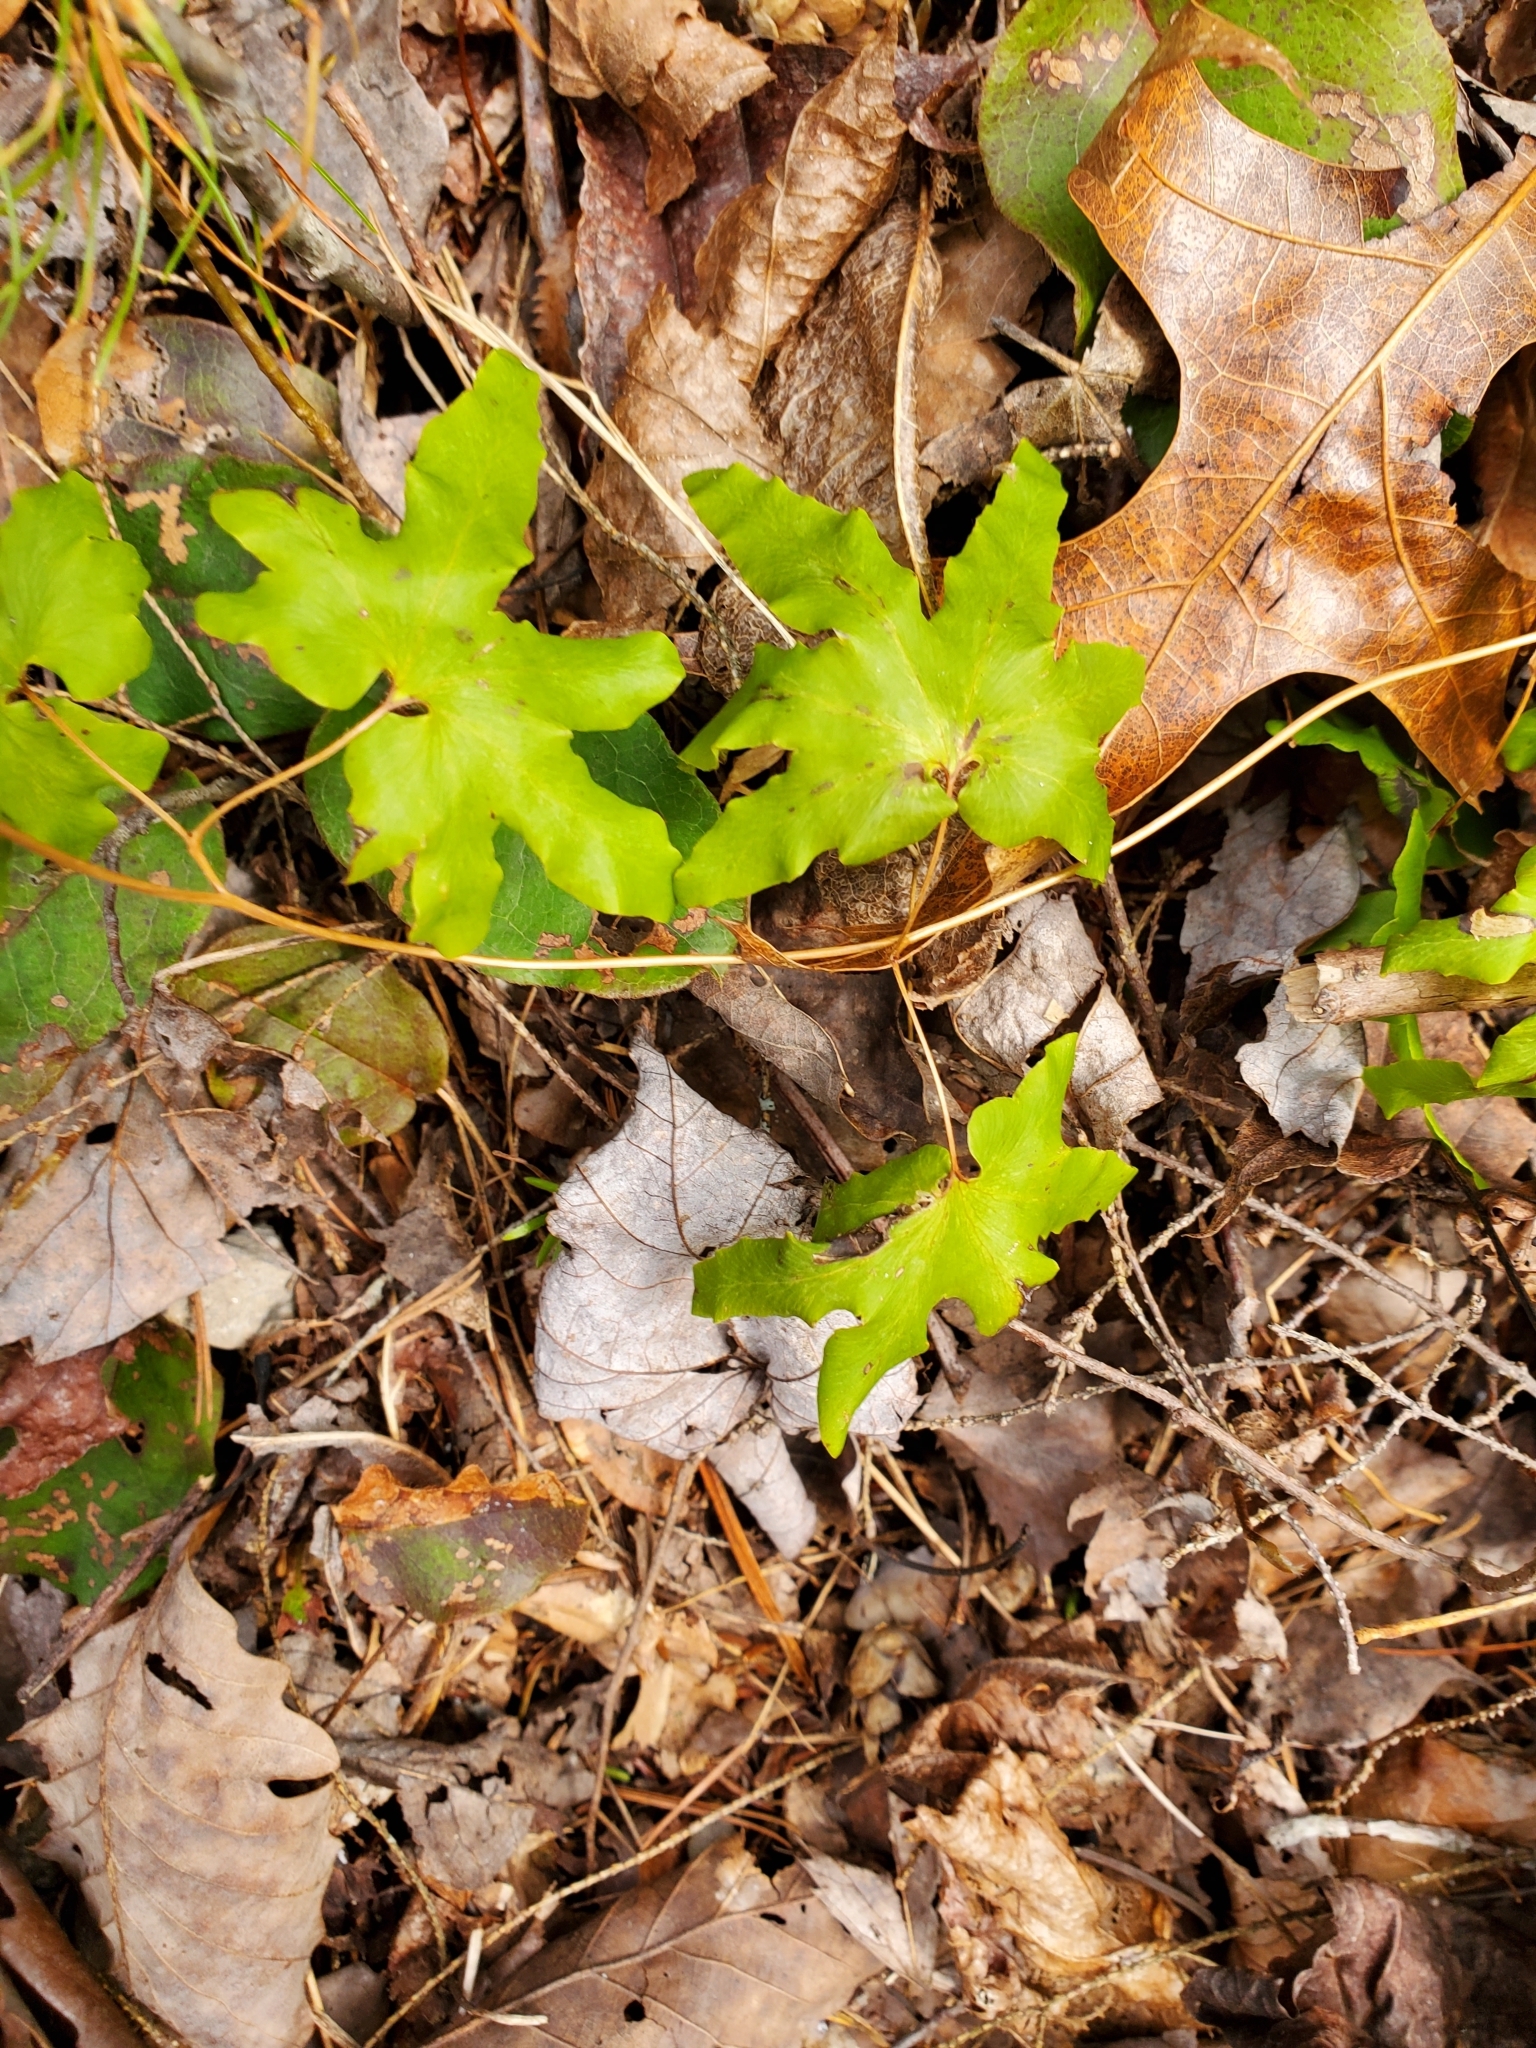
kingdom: Plantae
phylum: Tracheophyta
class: Polypodiopsida
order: Schizaeales
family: Lygodiaceae
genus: Lygodium
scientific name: Lygodium palmatum
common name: American climbing fern
